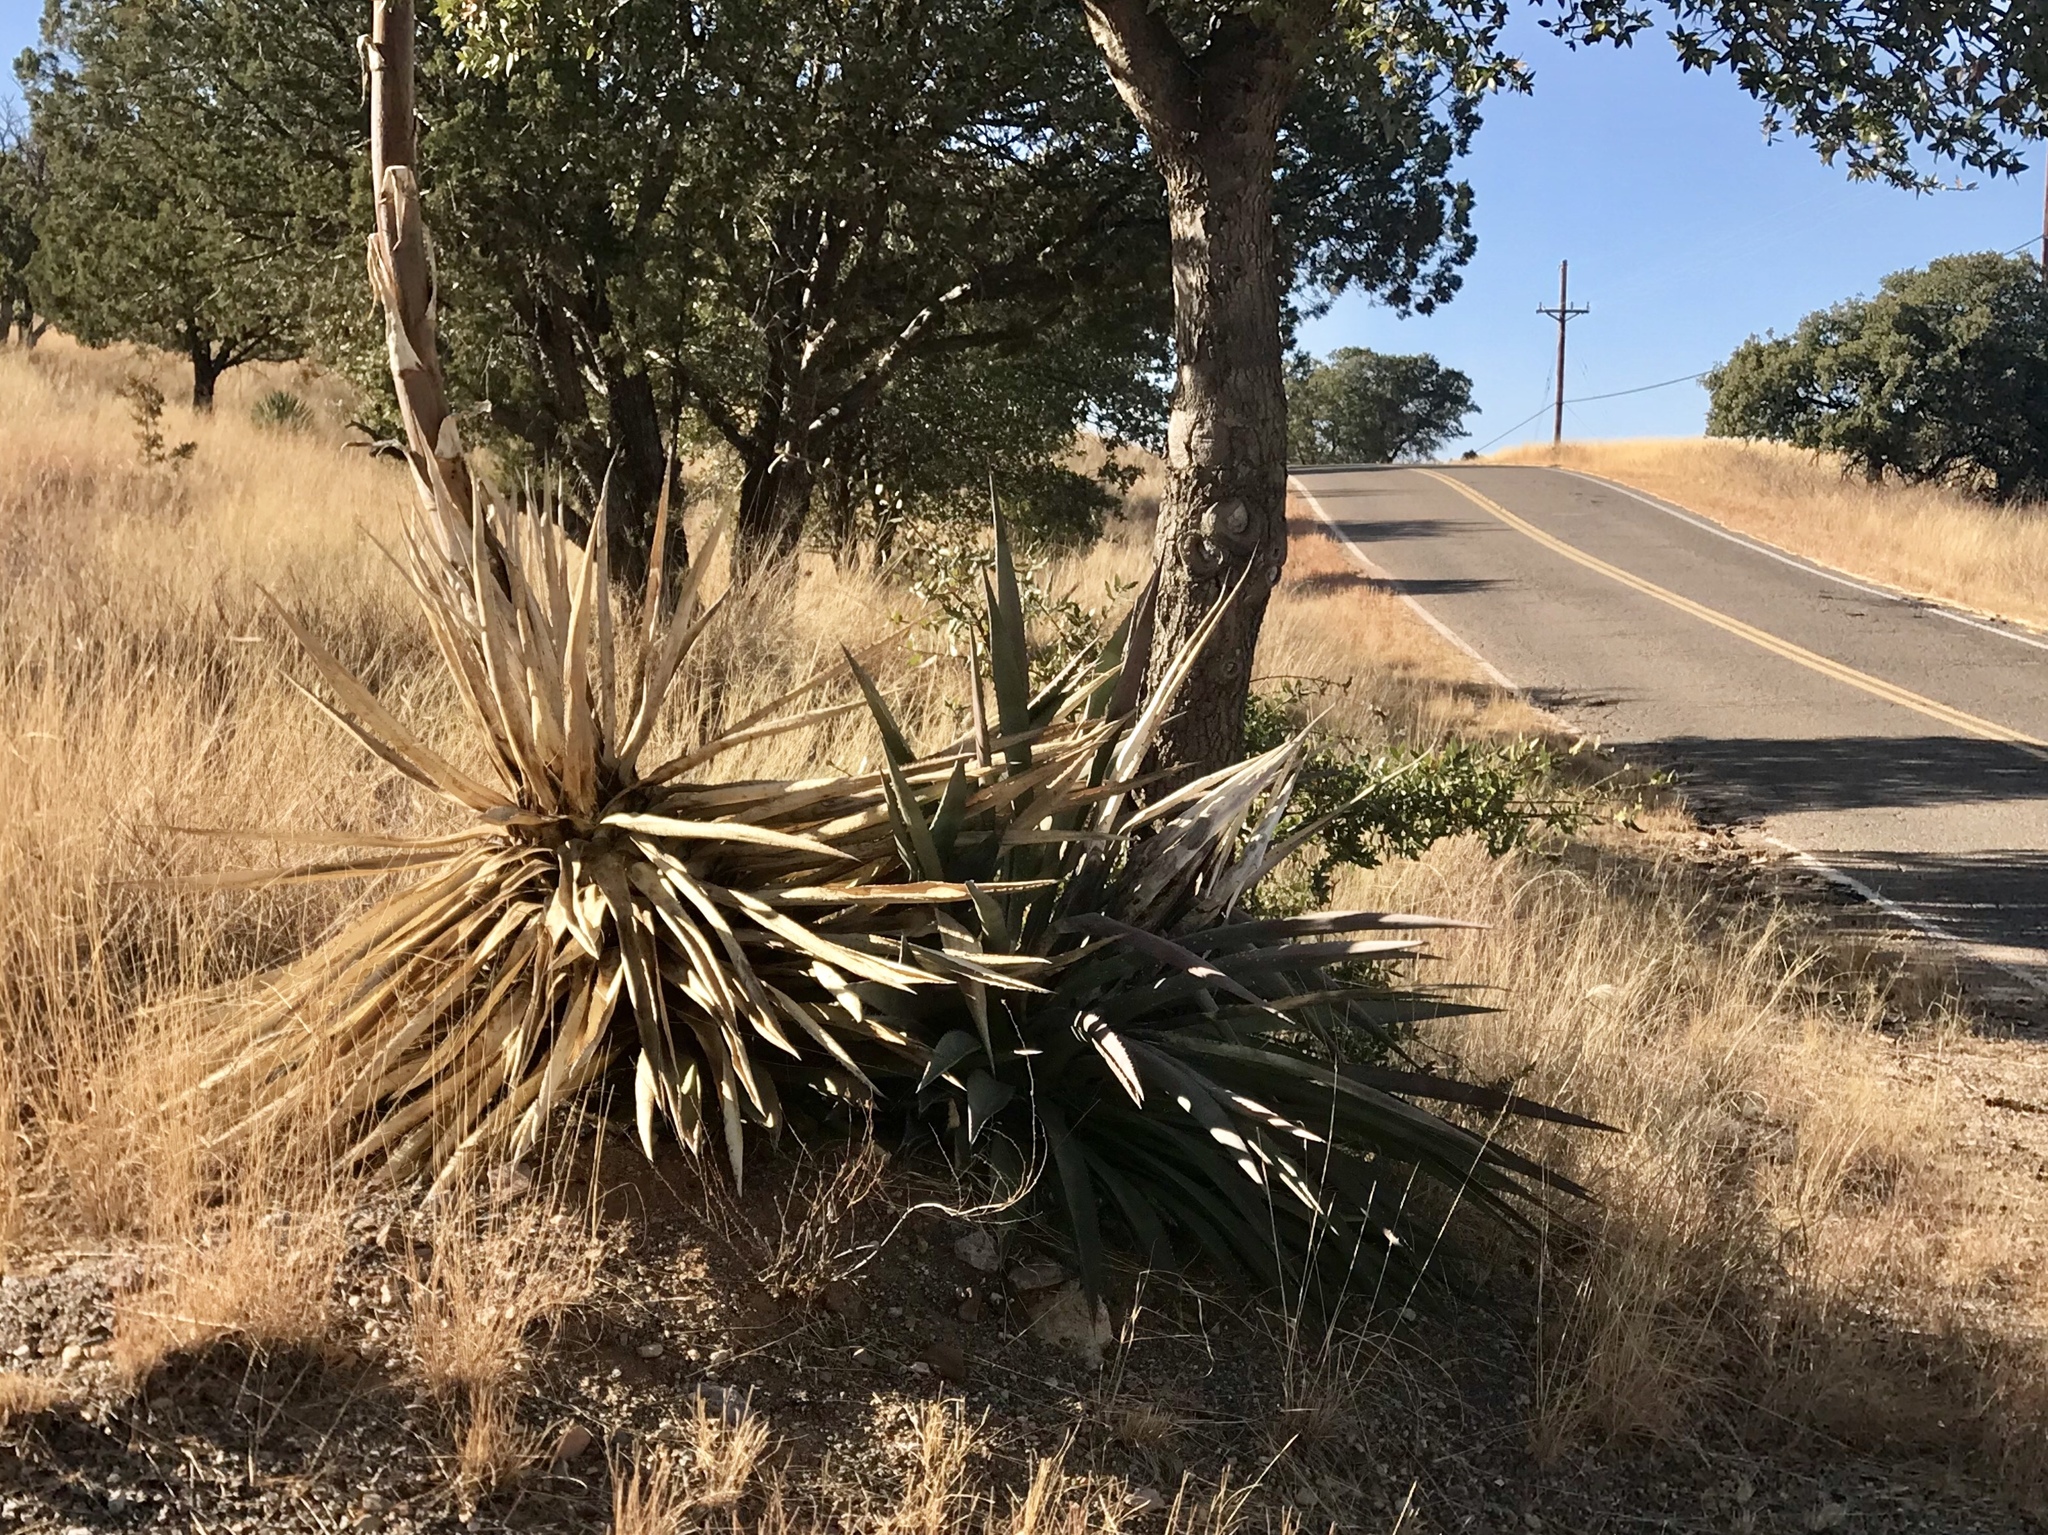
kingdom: Plantae
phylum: Tracheophyta
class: Liliopsida
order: Asparagales
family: Asparagaceae
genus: Agave
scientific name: Agave palmeri
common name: Palmer agave
